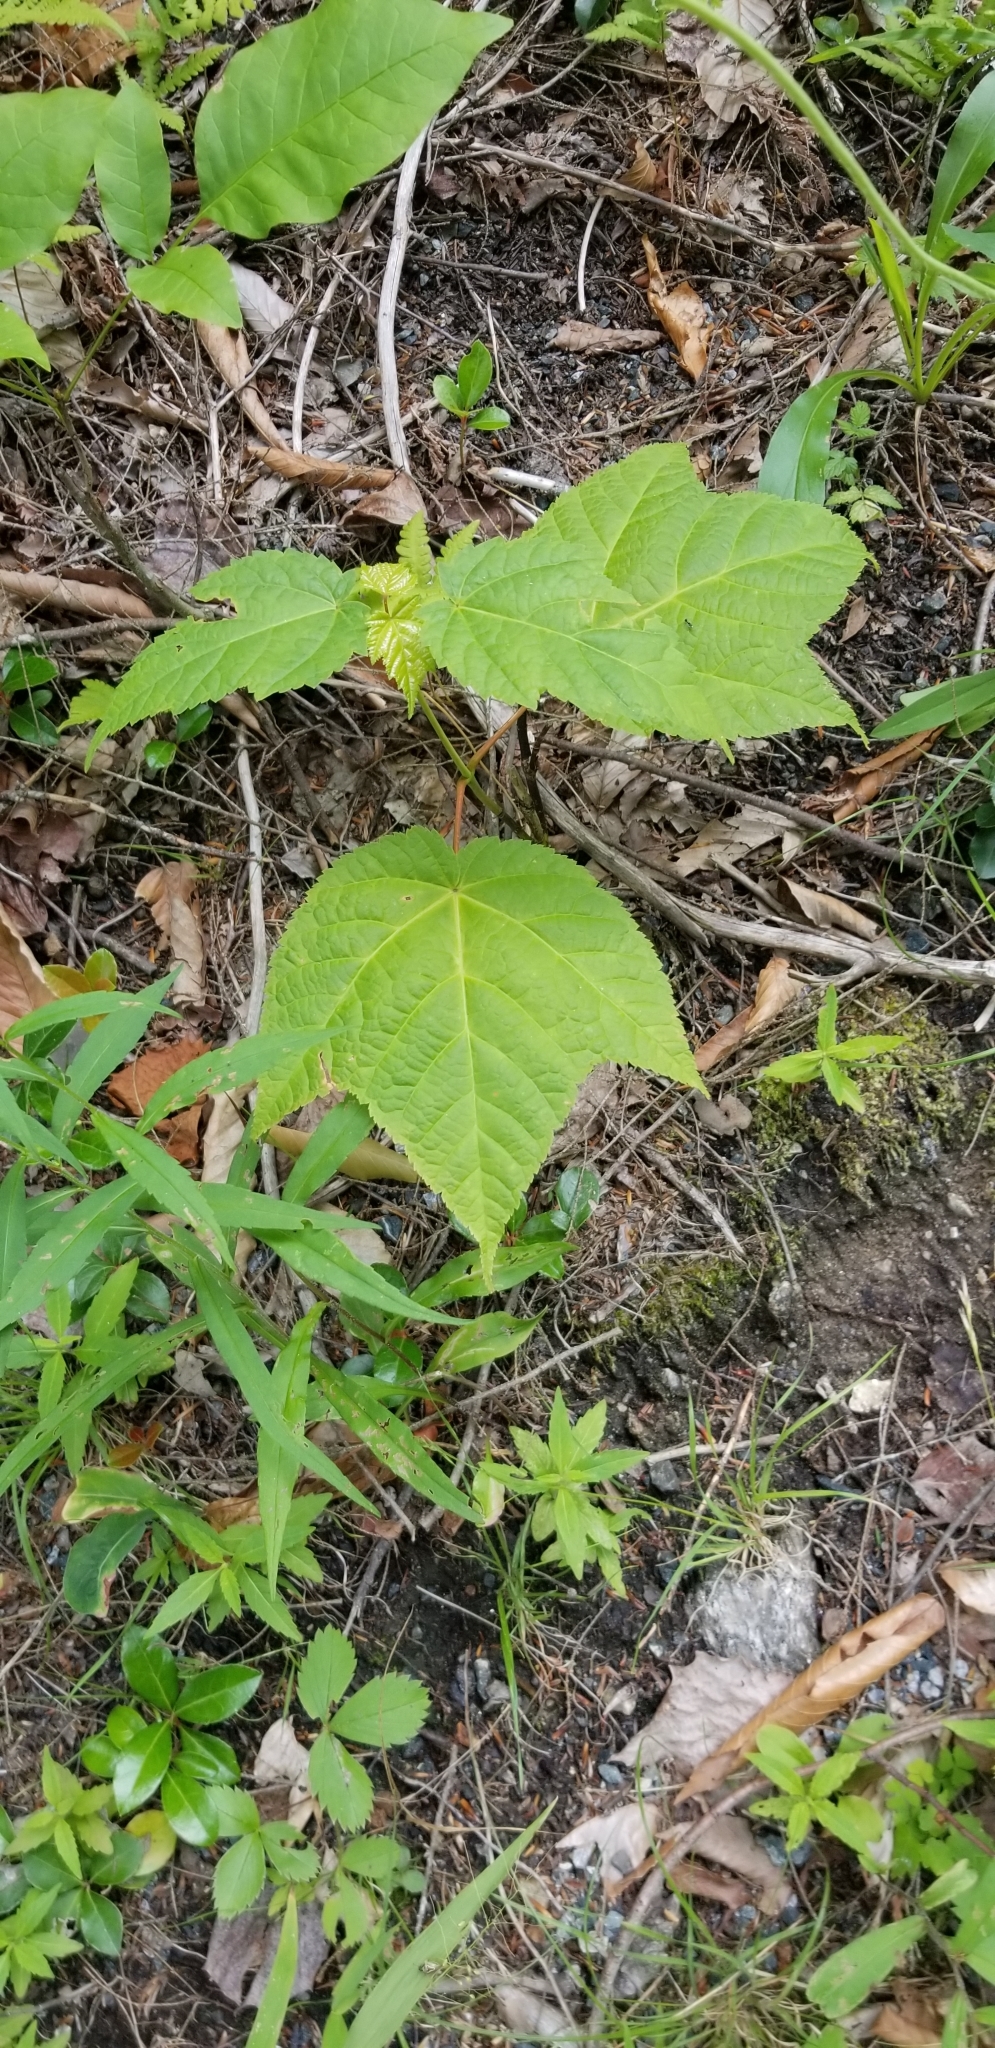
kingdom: Plantae
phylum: Tracheophyta
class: Magnoliopsida
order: Sapindales
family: Sapindaceae
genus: Acer
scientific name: Acer pensylvanicum
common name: Moosewood
